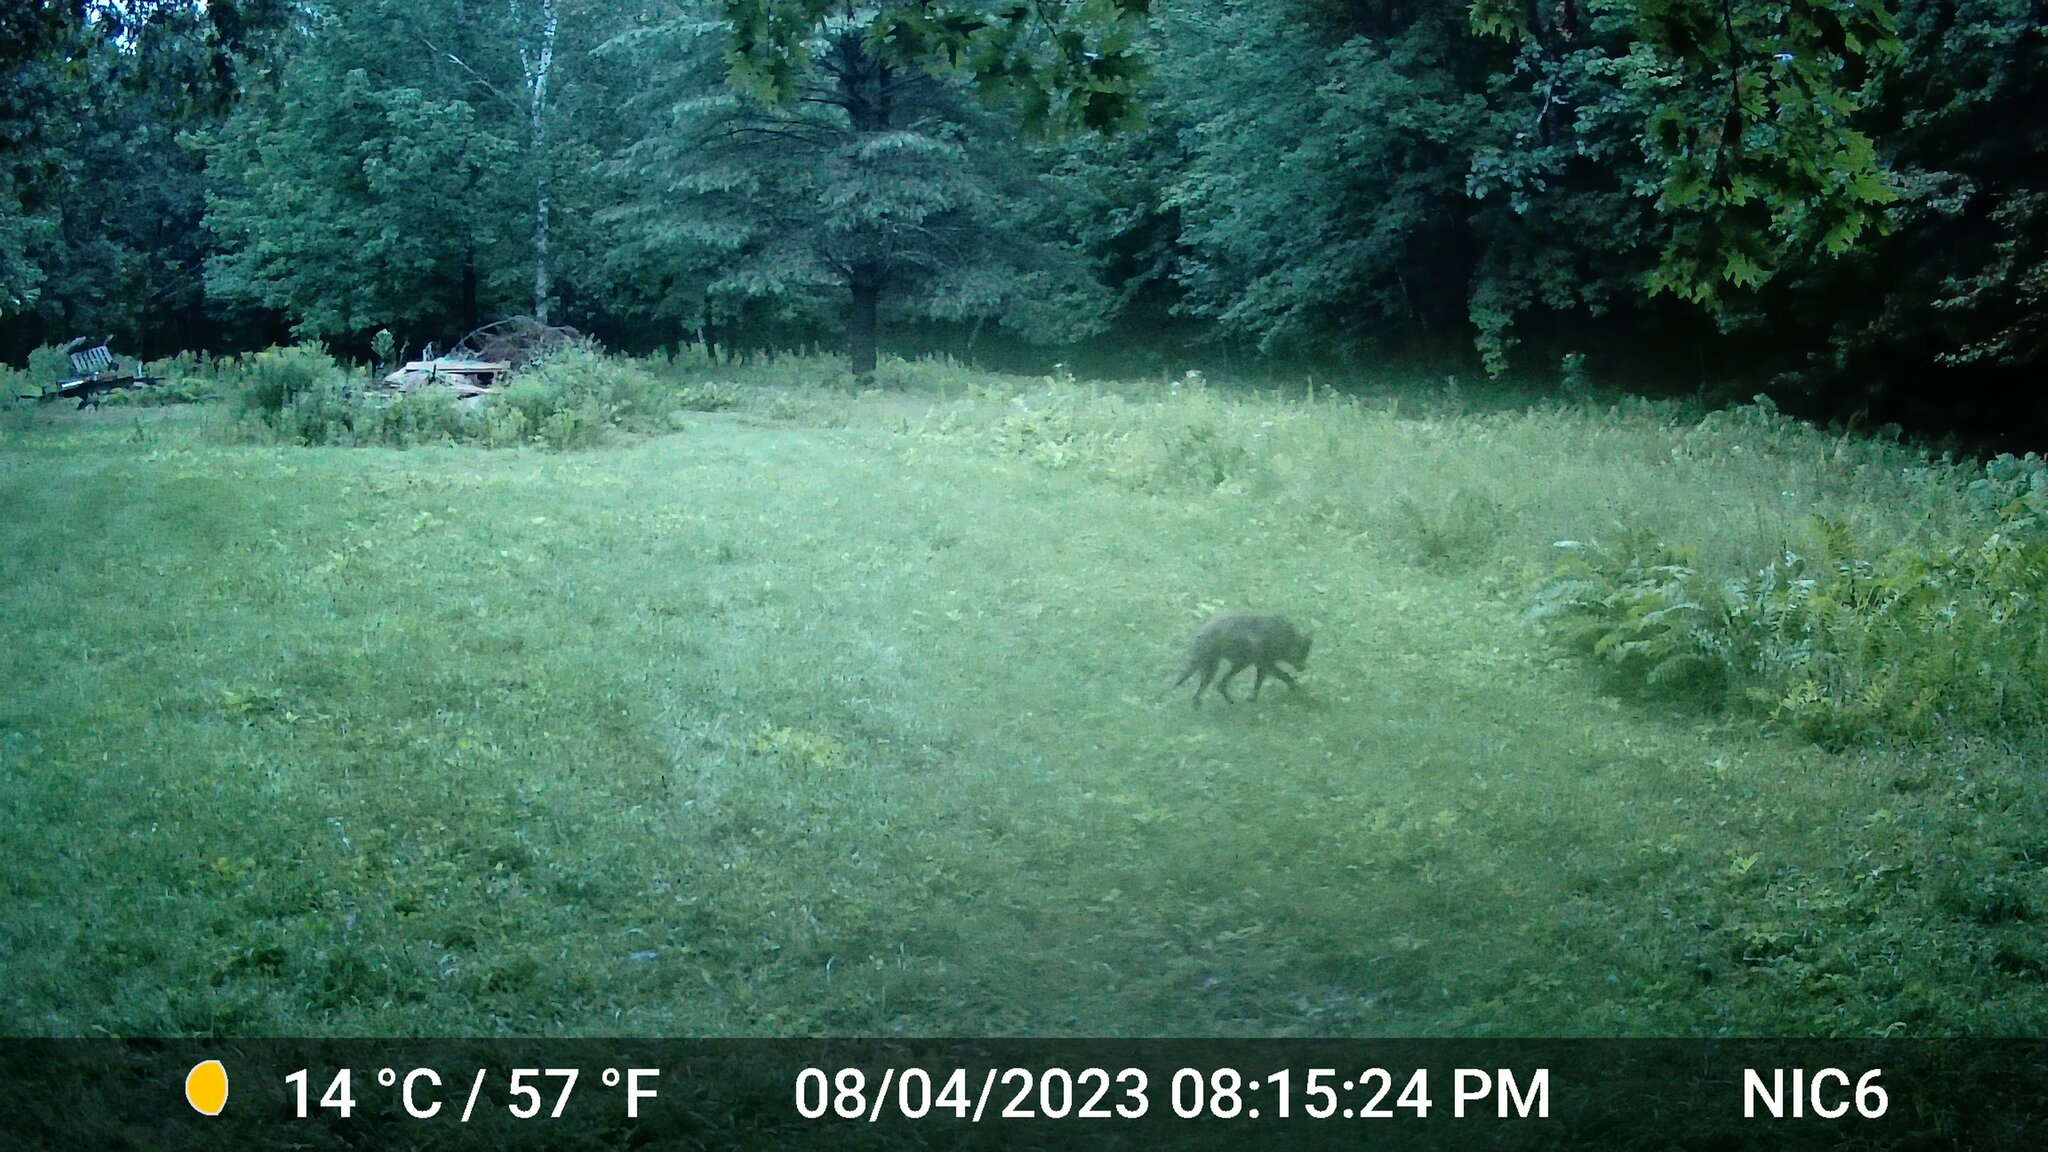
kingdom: Animalia
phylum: Chordata
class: Mammalia
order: Carnivora
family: Canidae
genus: Canis
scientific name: Canis latrans
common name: Coyote
